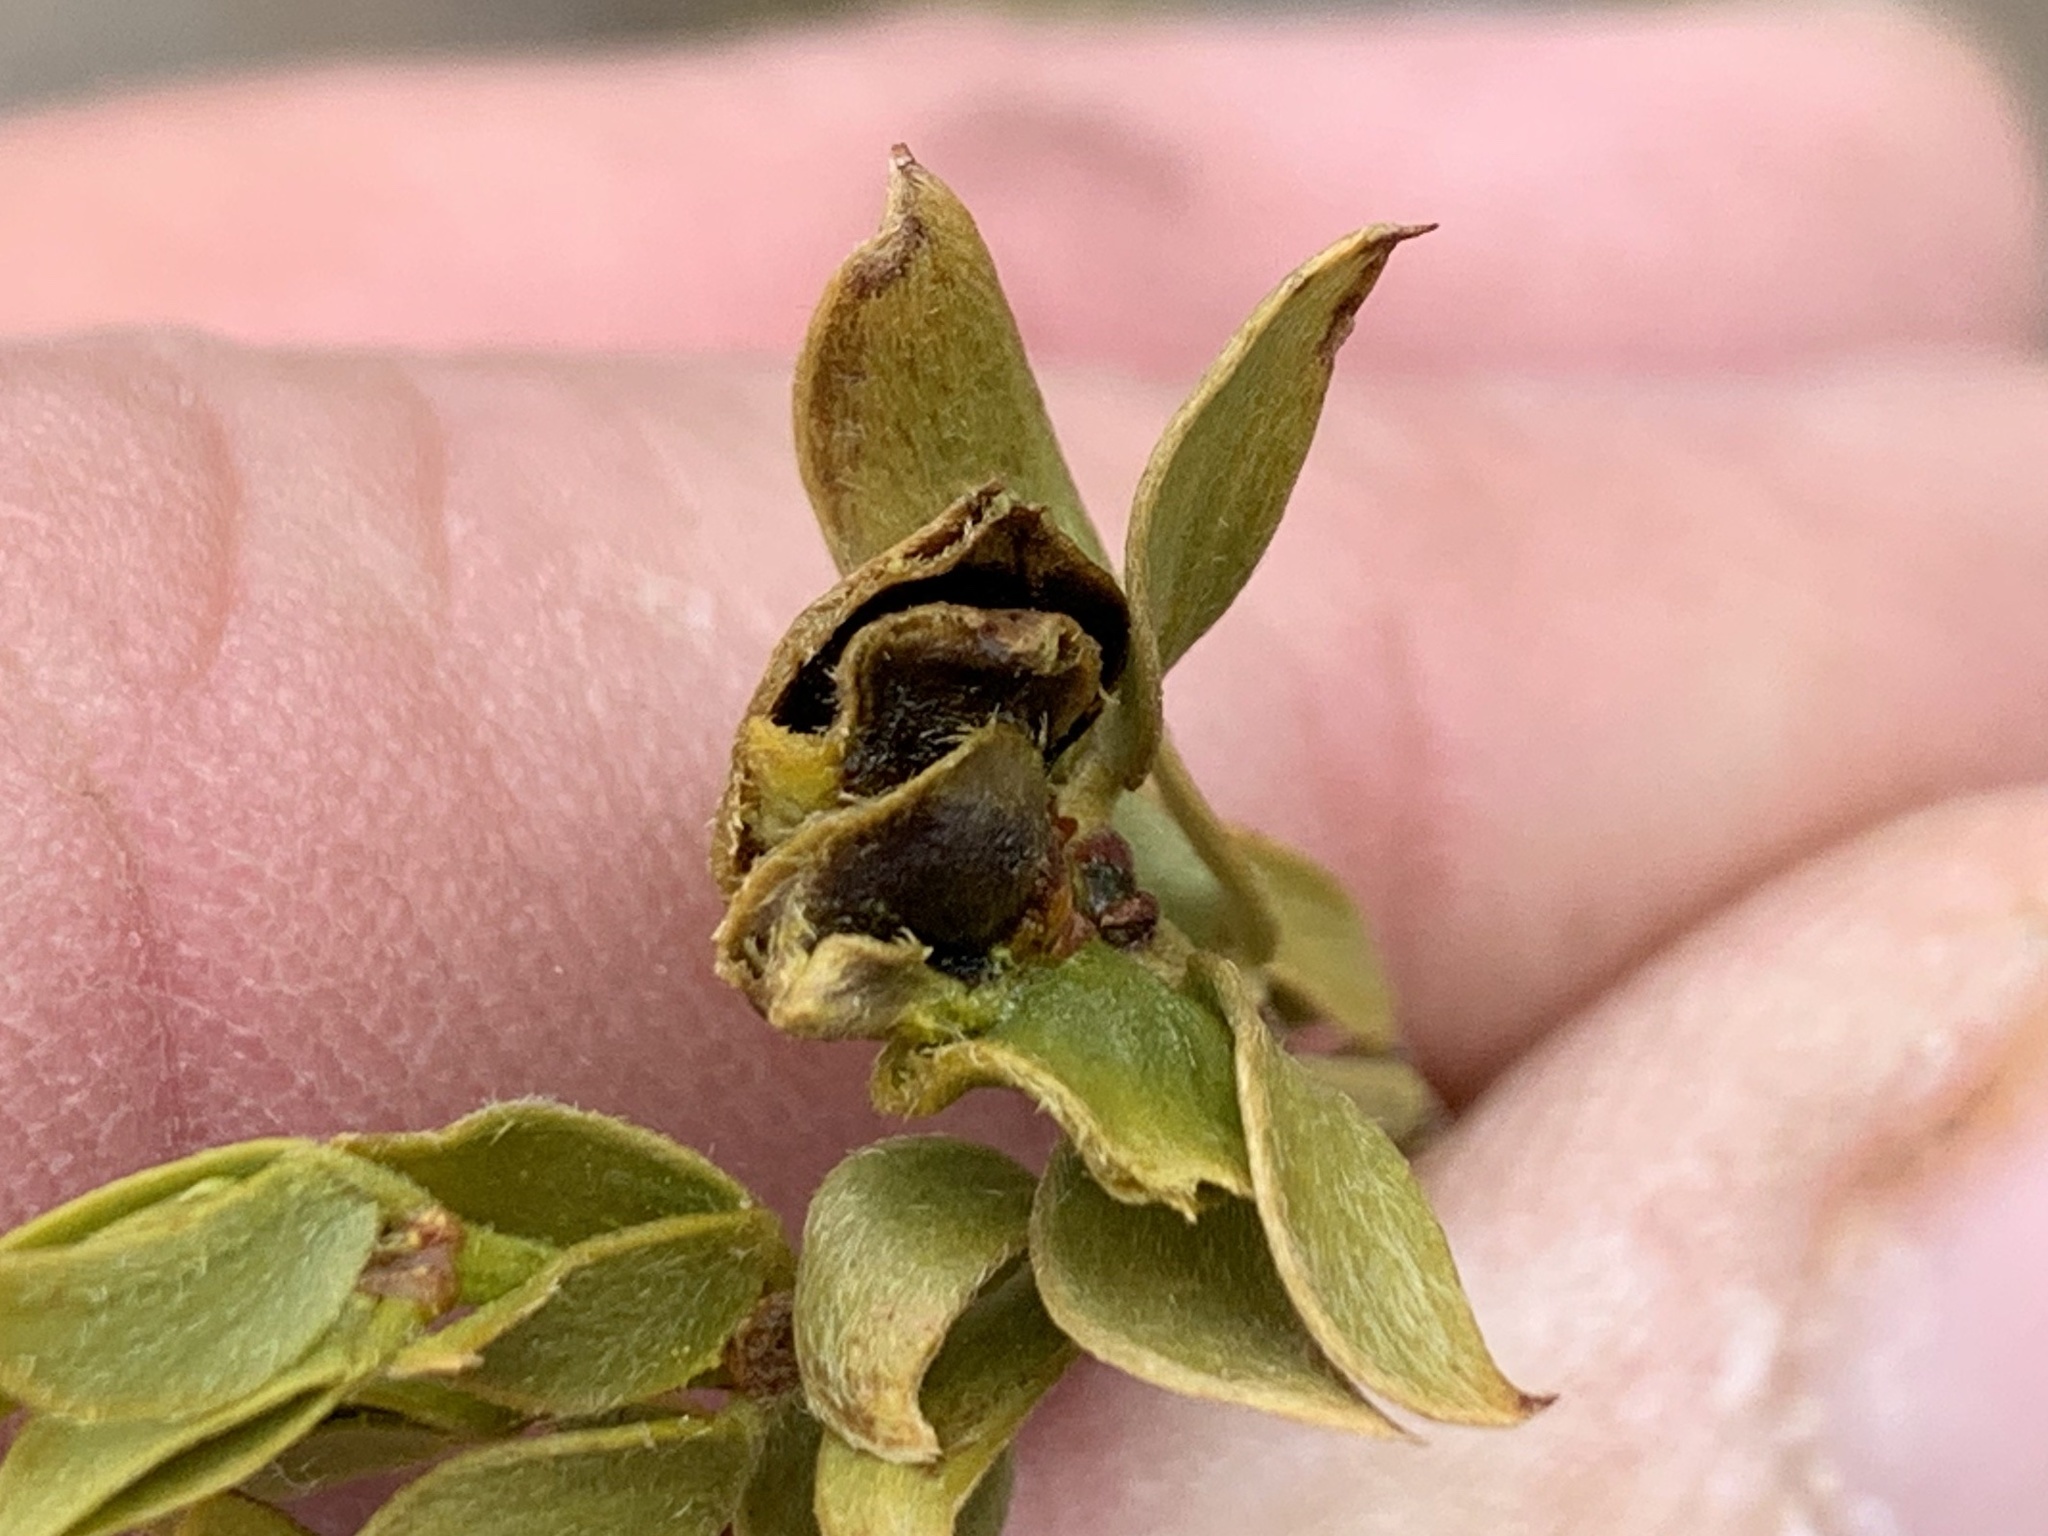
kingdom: Animalia
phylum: Arthropoda
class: Insecta
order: Diptera
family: Cecidomyiidae
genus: Contarinia
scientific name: Contarinia
